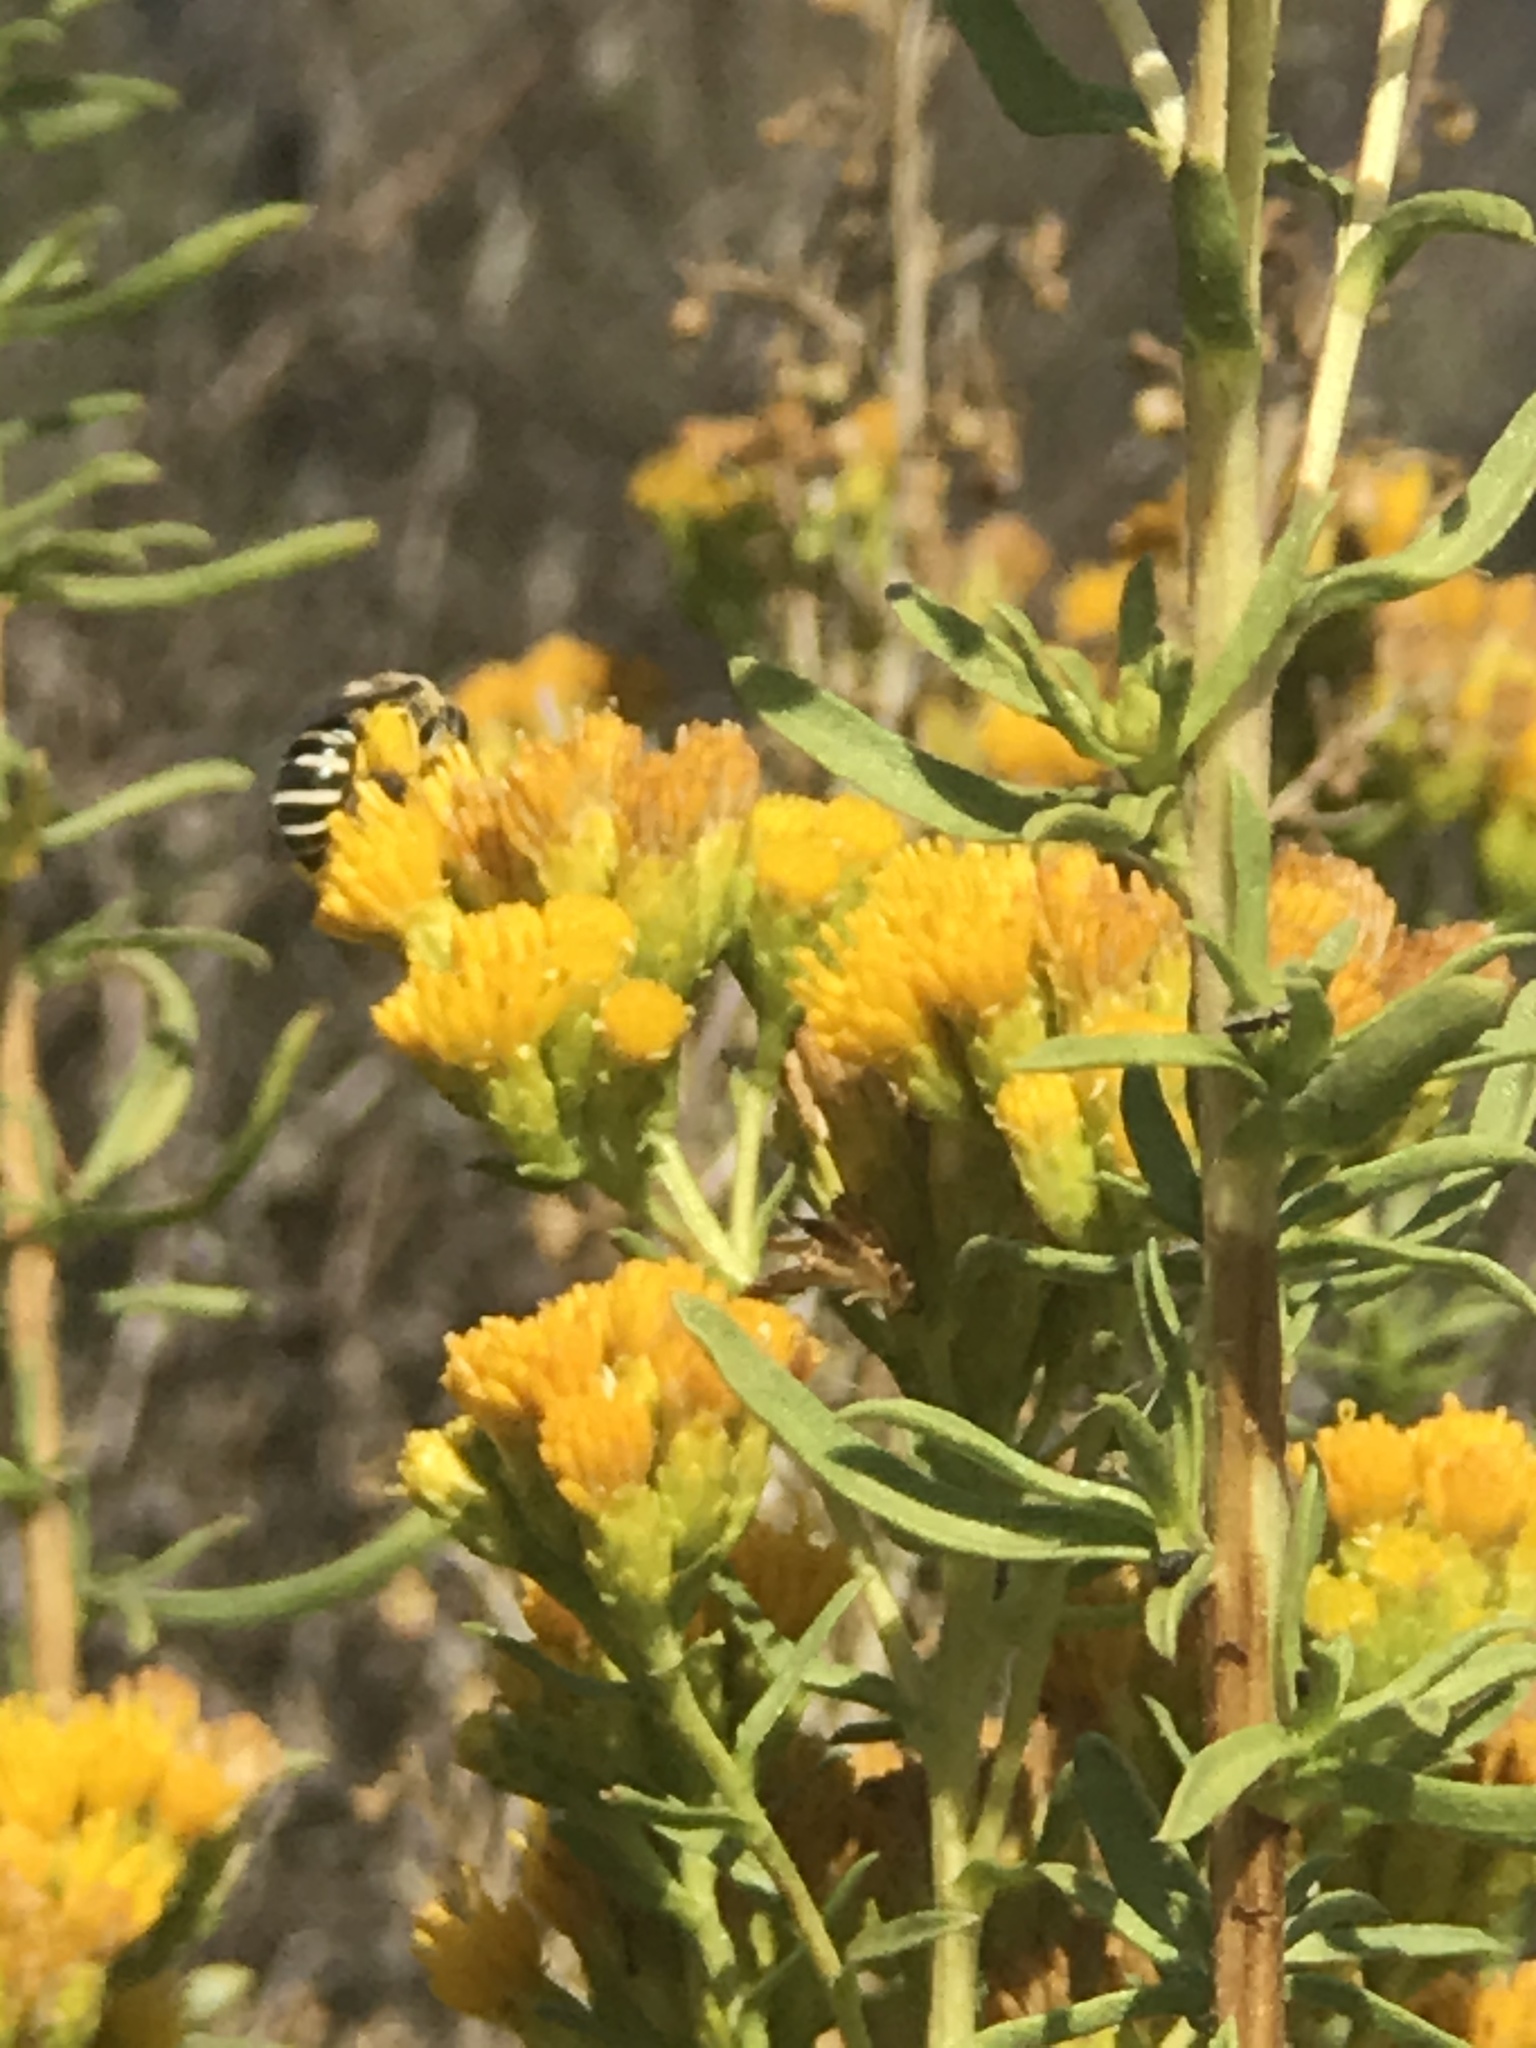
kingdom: Animalia
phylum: Arthropoda
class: Insecta
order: Hymenoptera
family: Colletidae
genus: Colletes
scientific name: Colletes
